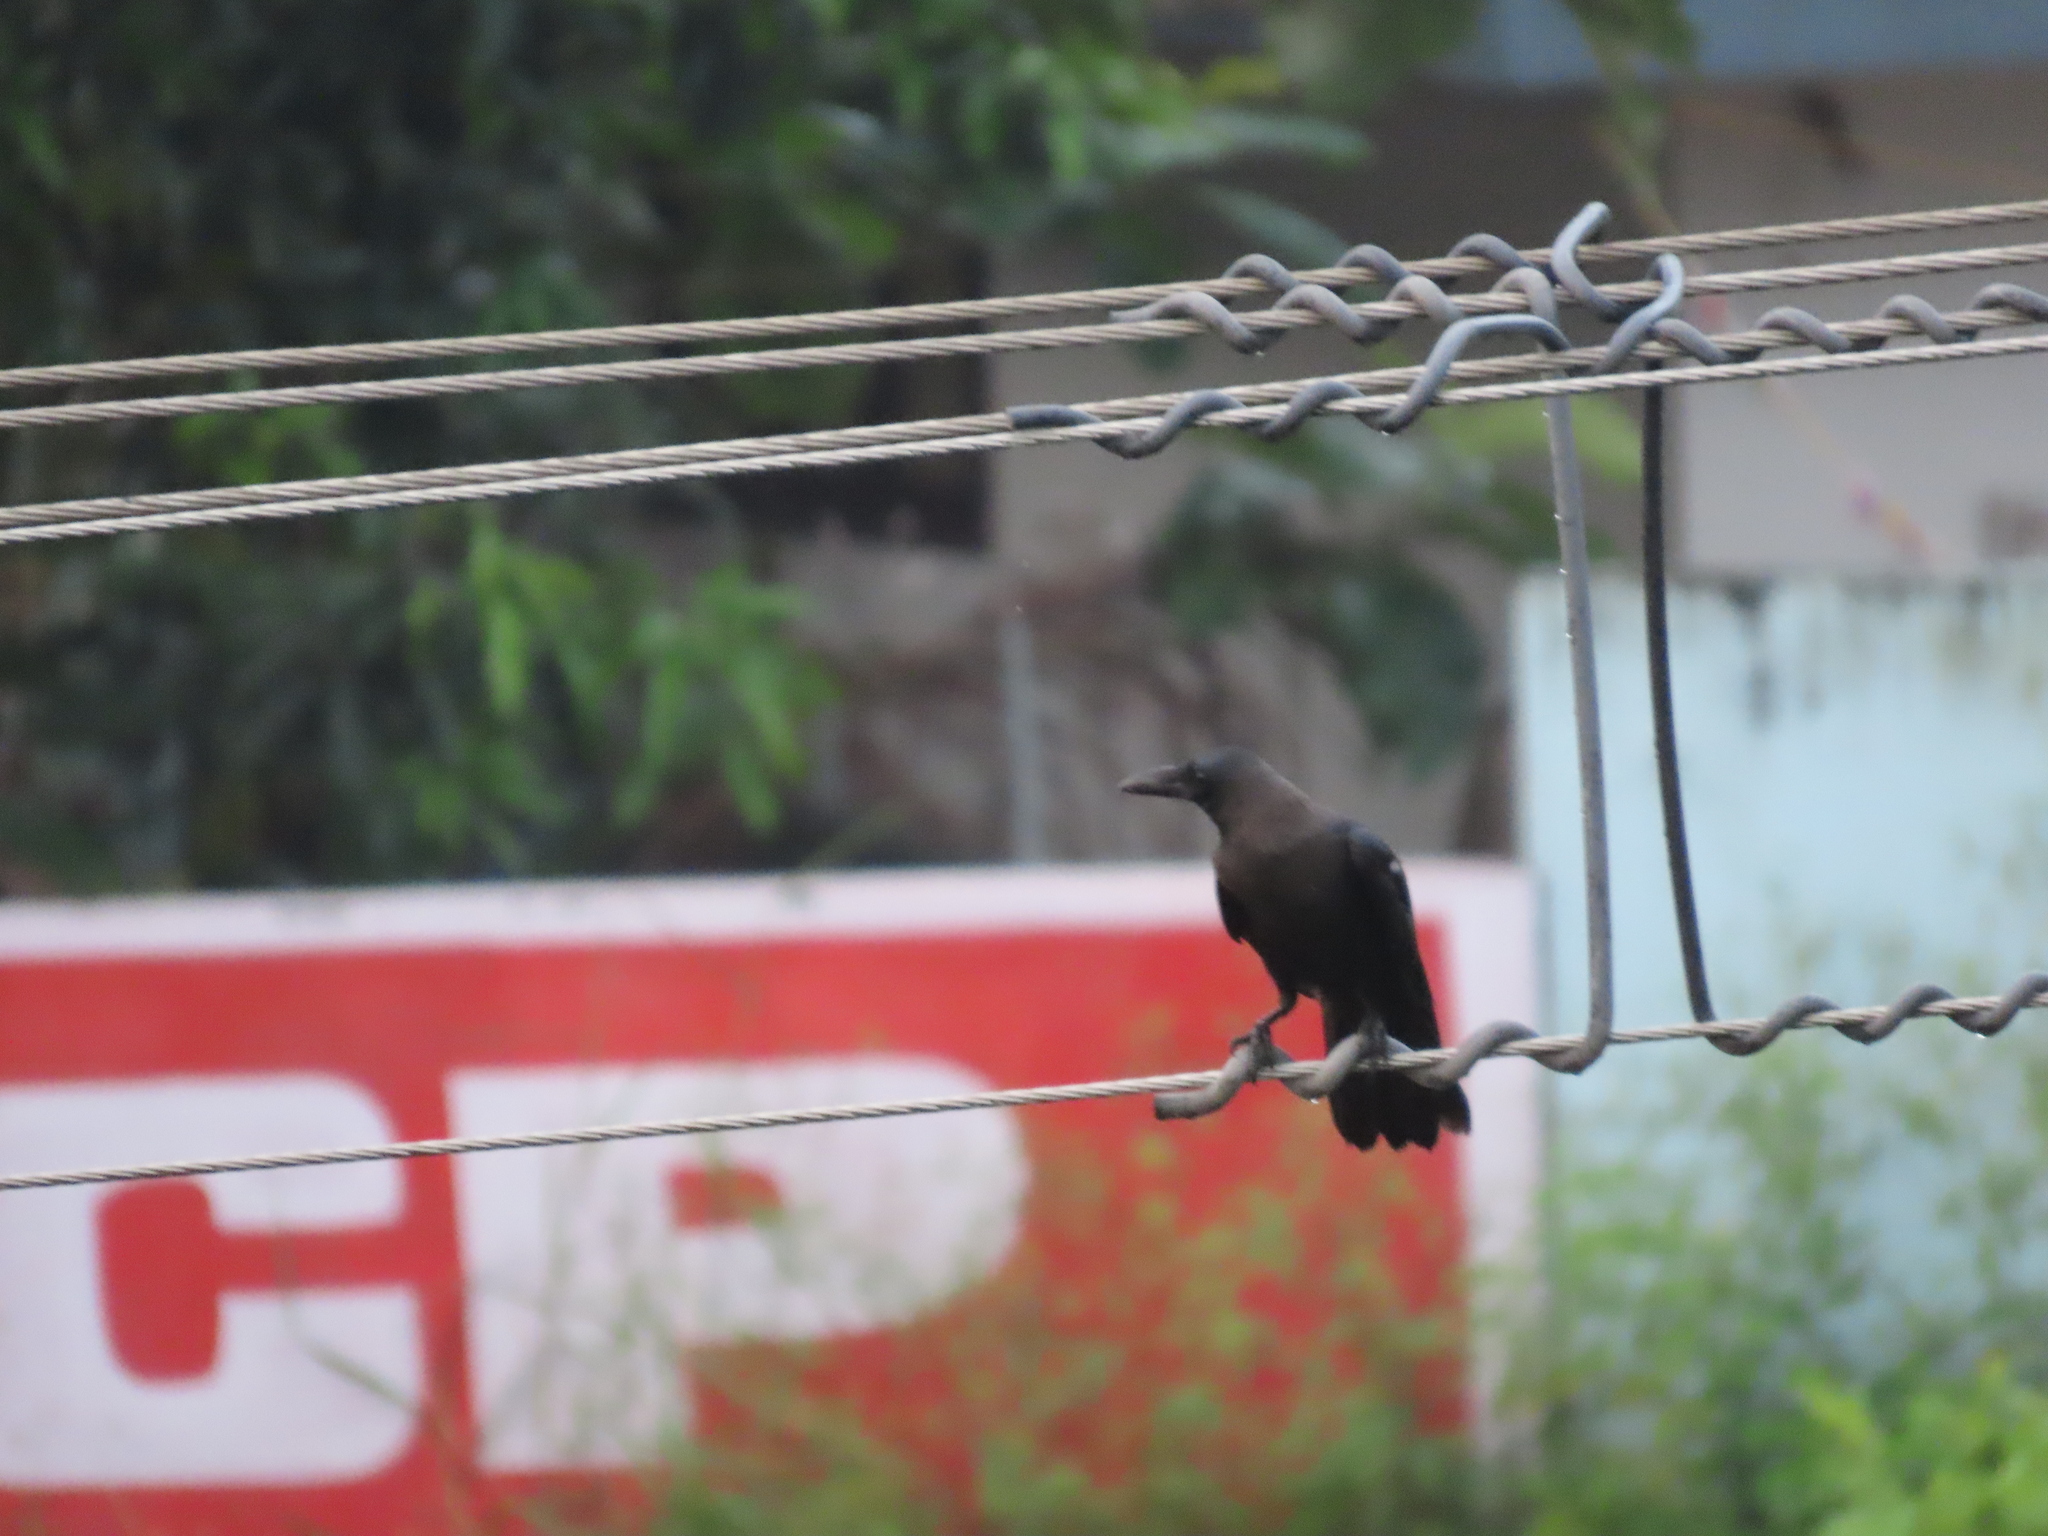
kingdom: Animalia
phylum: Chordata
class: Aves
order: Passeriformes
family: Corvidae
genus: Corvus
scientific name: Corvus splendens
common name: House crow
